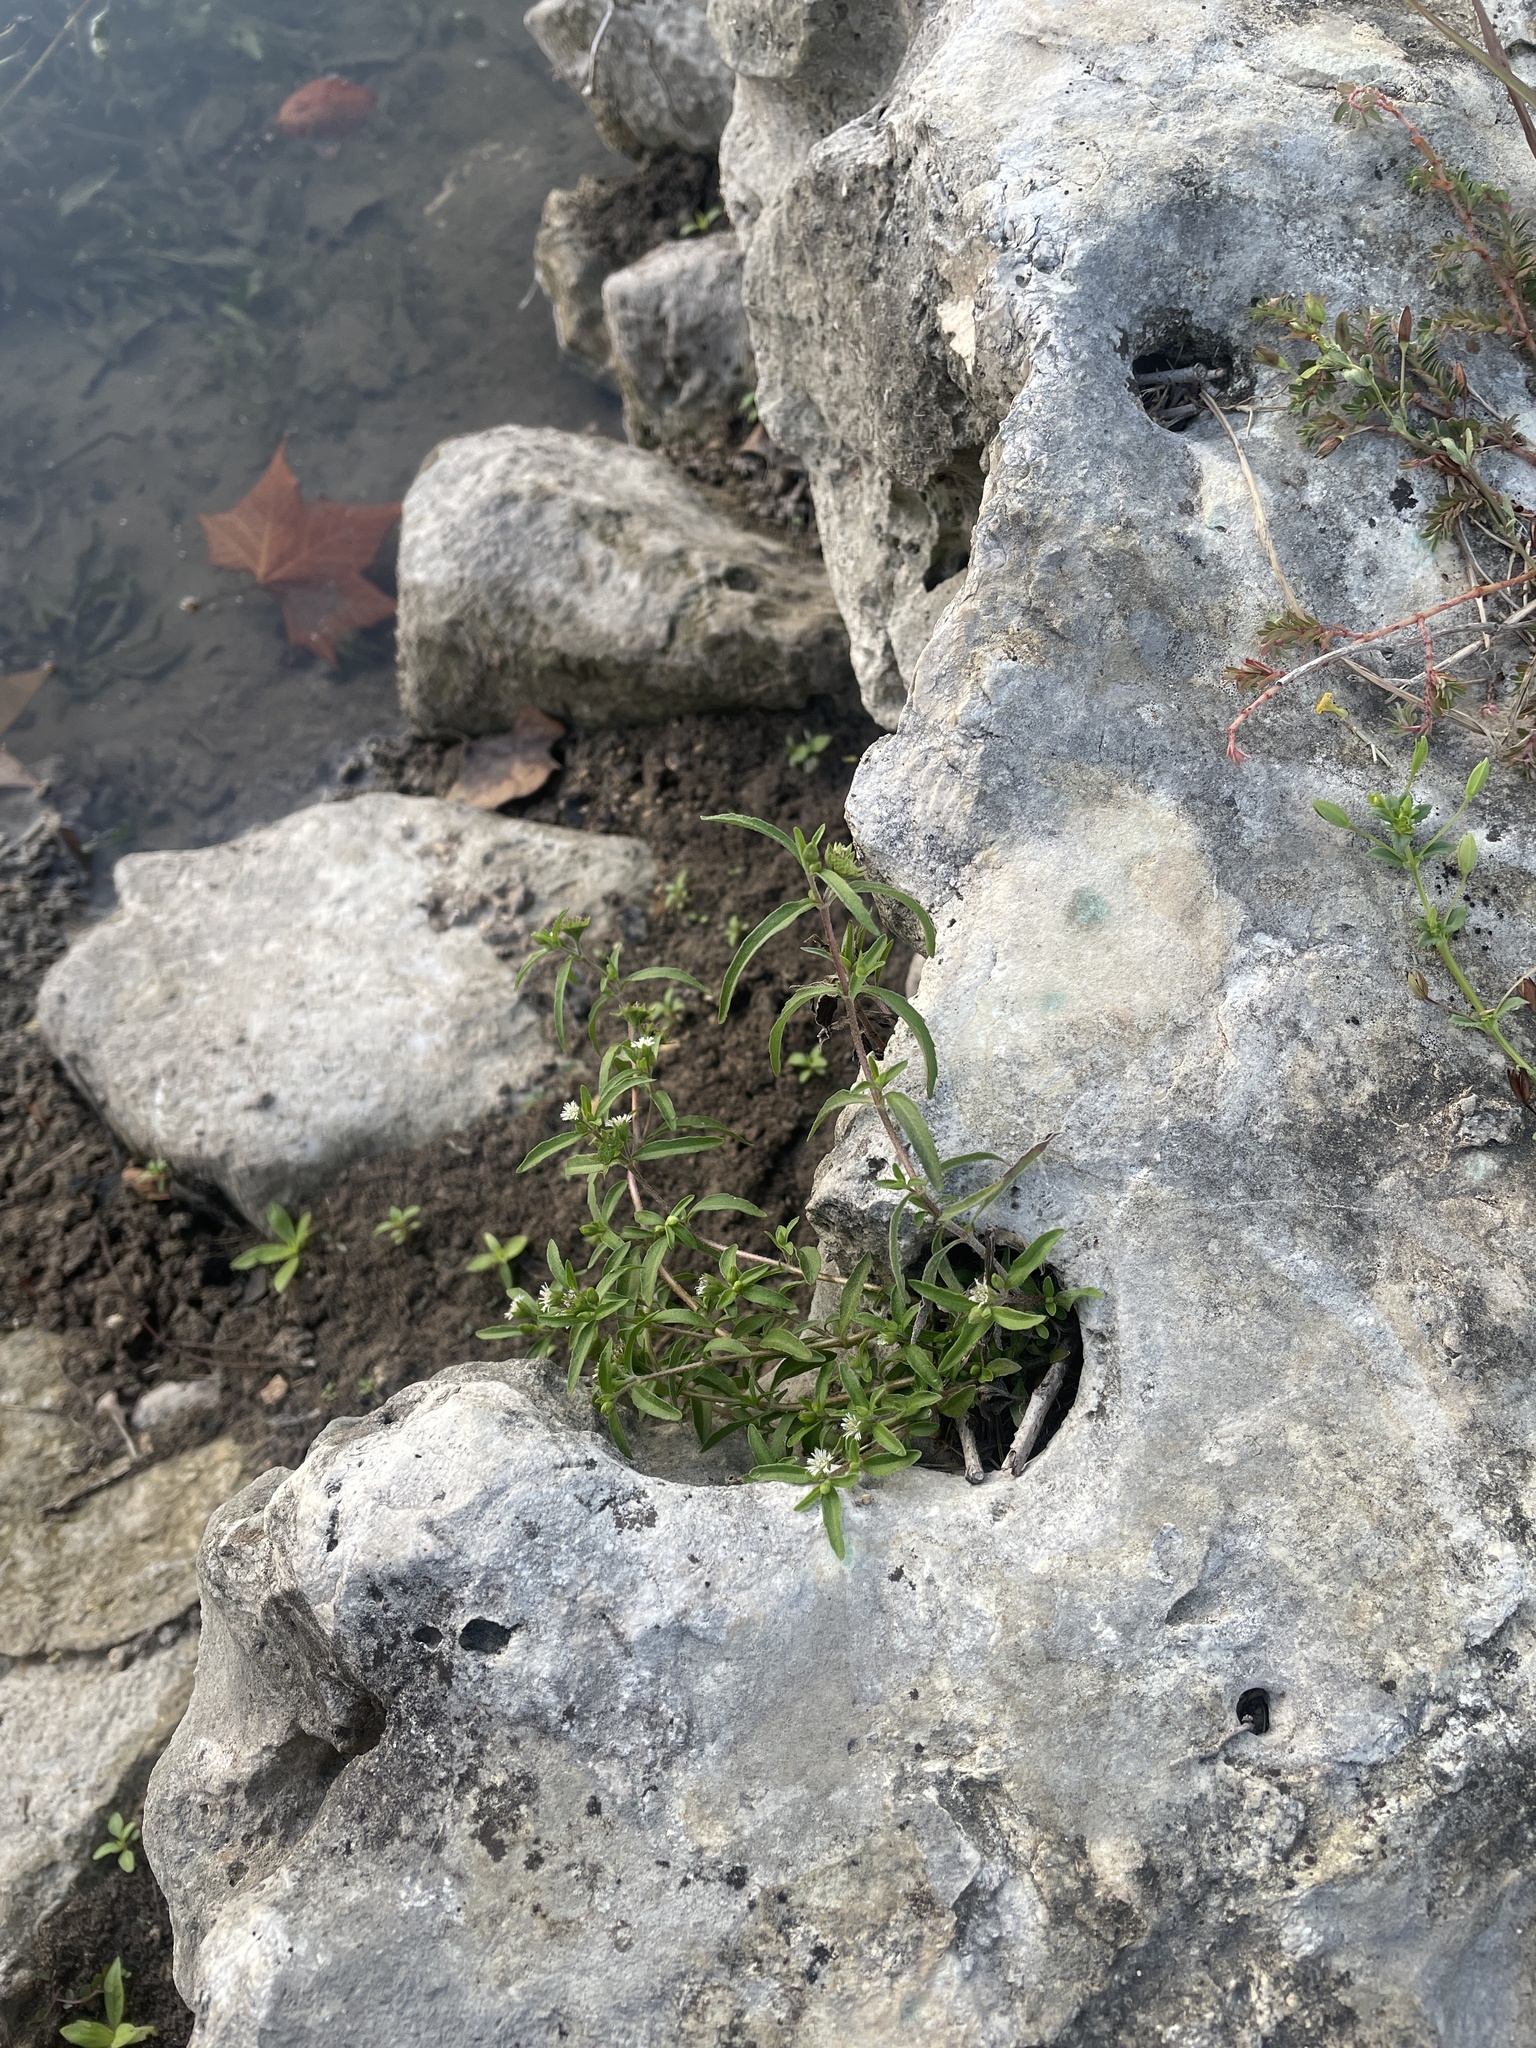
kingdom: Plantae
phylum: Tracheophyta
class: Magnoliopsida
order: Asterales
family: Asteraceae
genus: Eclipta
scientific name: Eclipta prostrata
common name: False daisy
